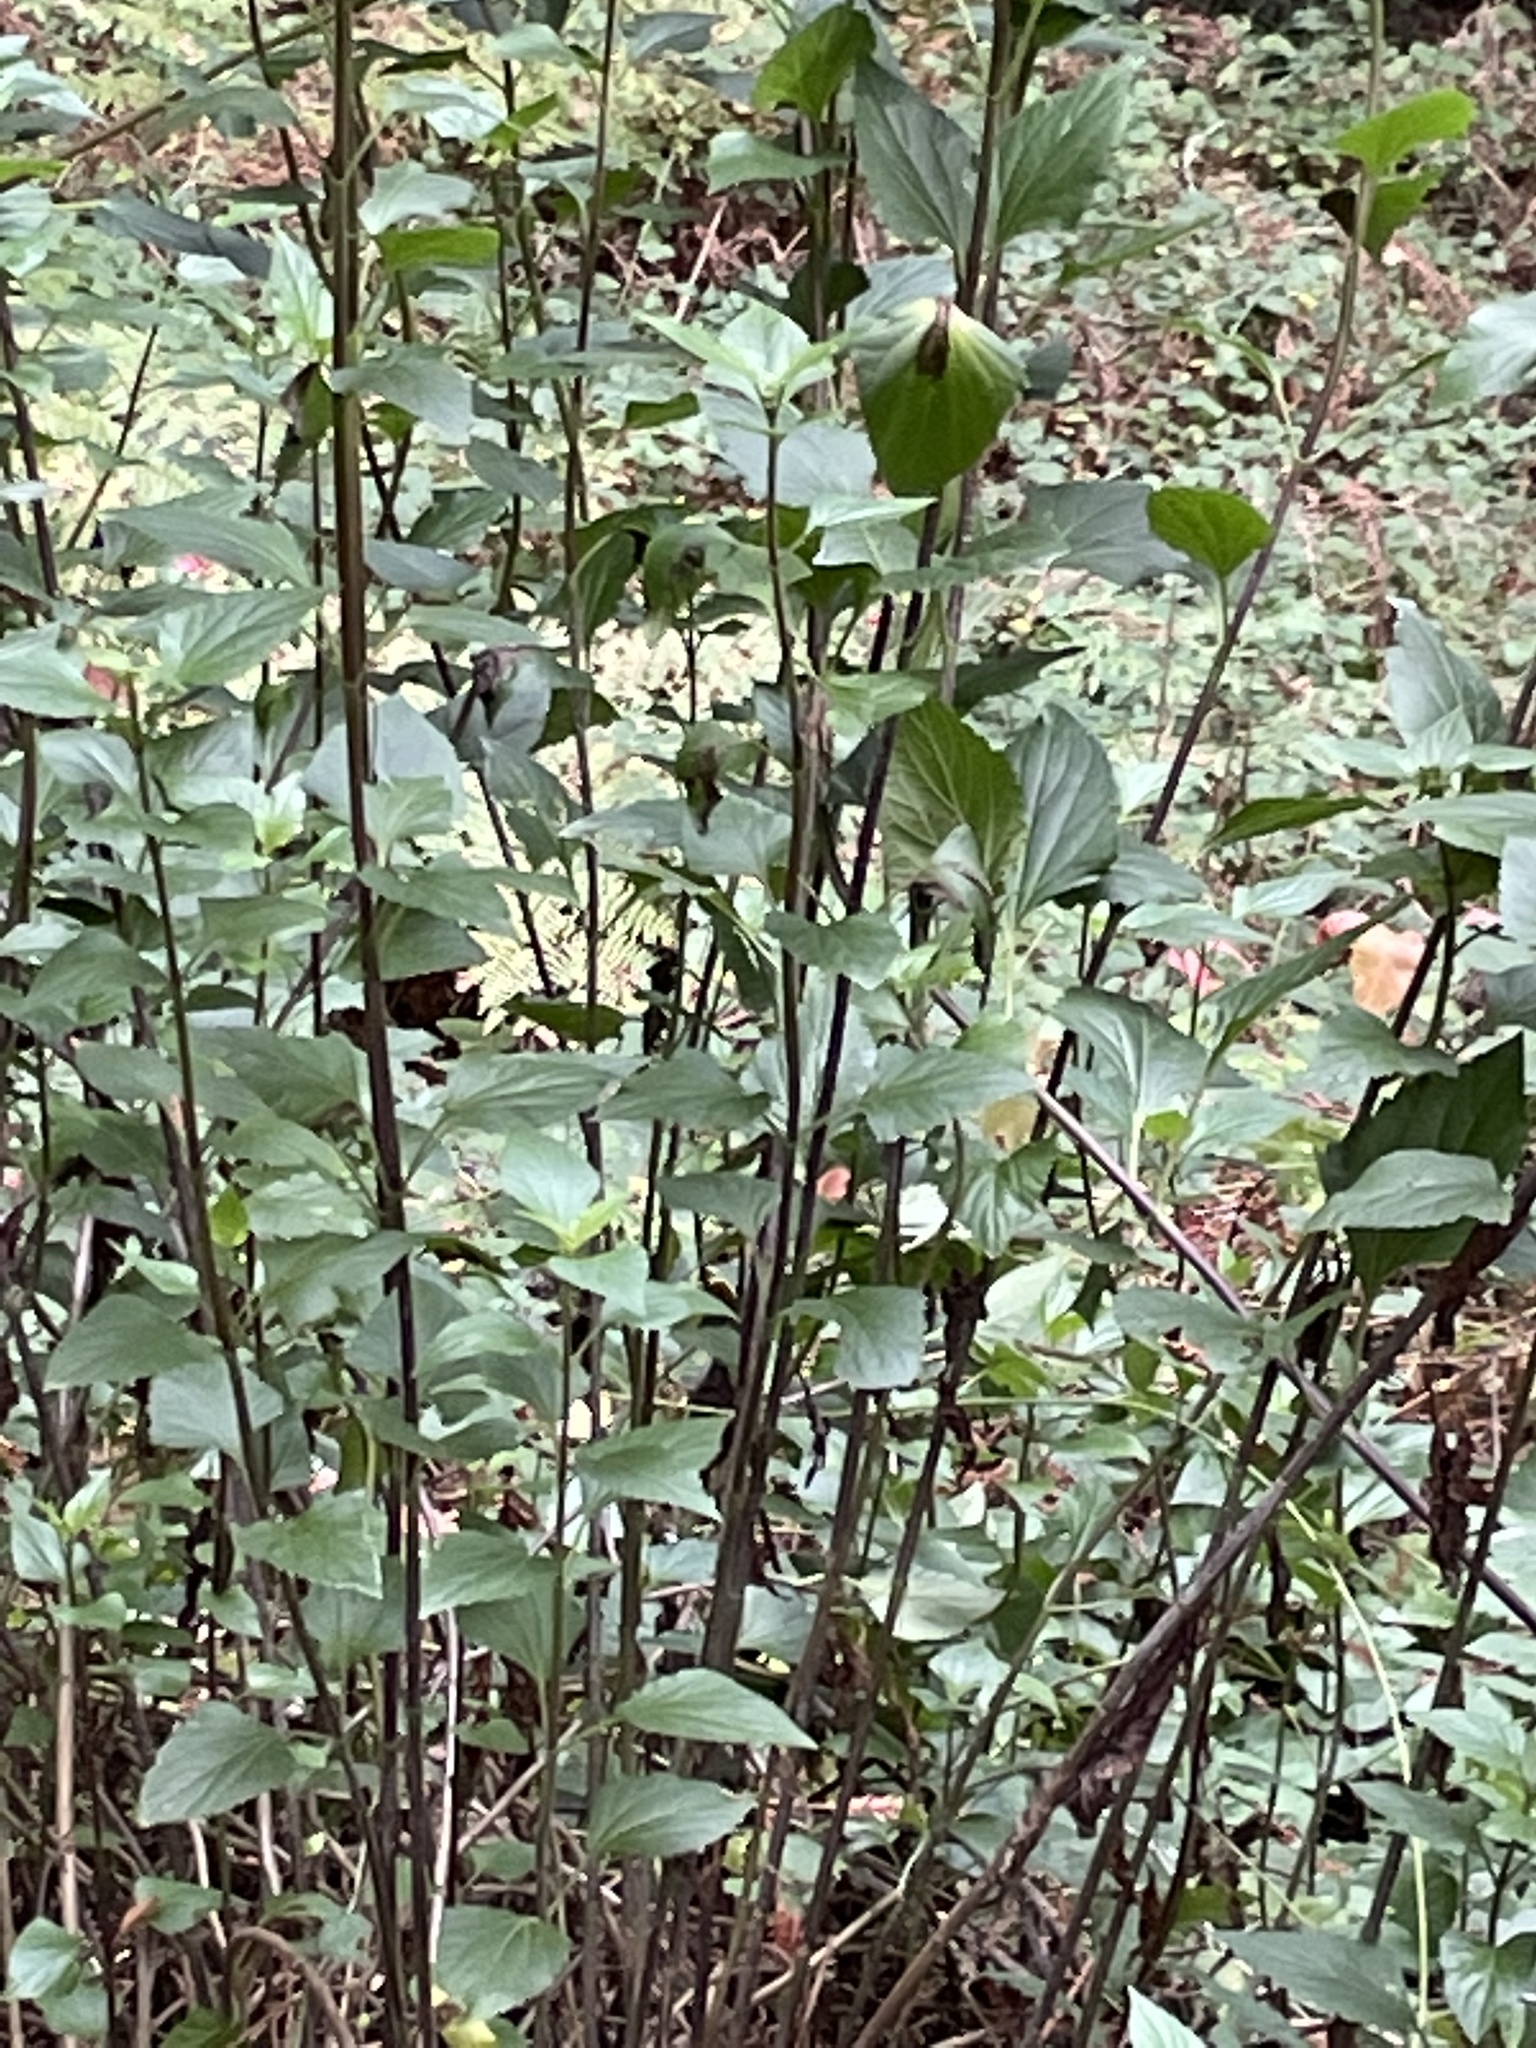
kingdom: Plantae
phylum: Tracheophyta
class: Magnoliopsida
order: Asterales
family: Asteraceae
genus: Ageratina
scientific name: Ageratina adenophora
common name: Sticky snakeroot
